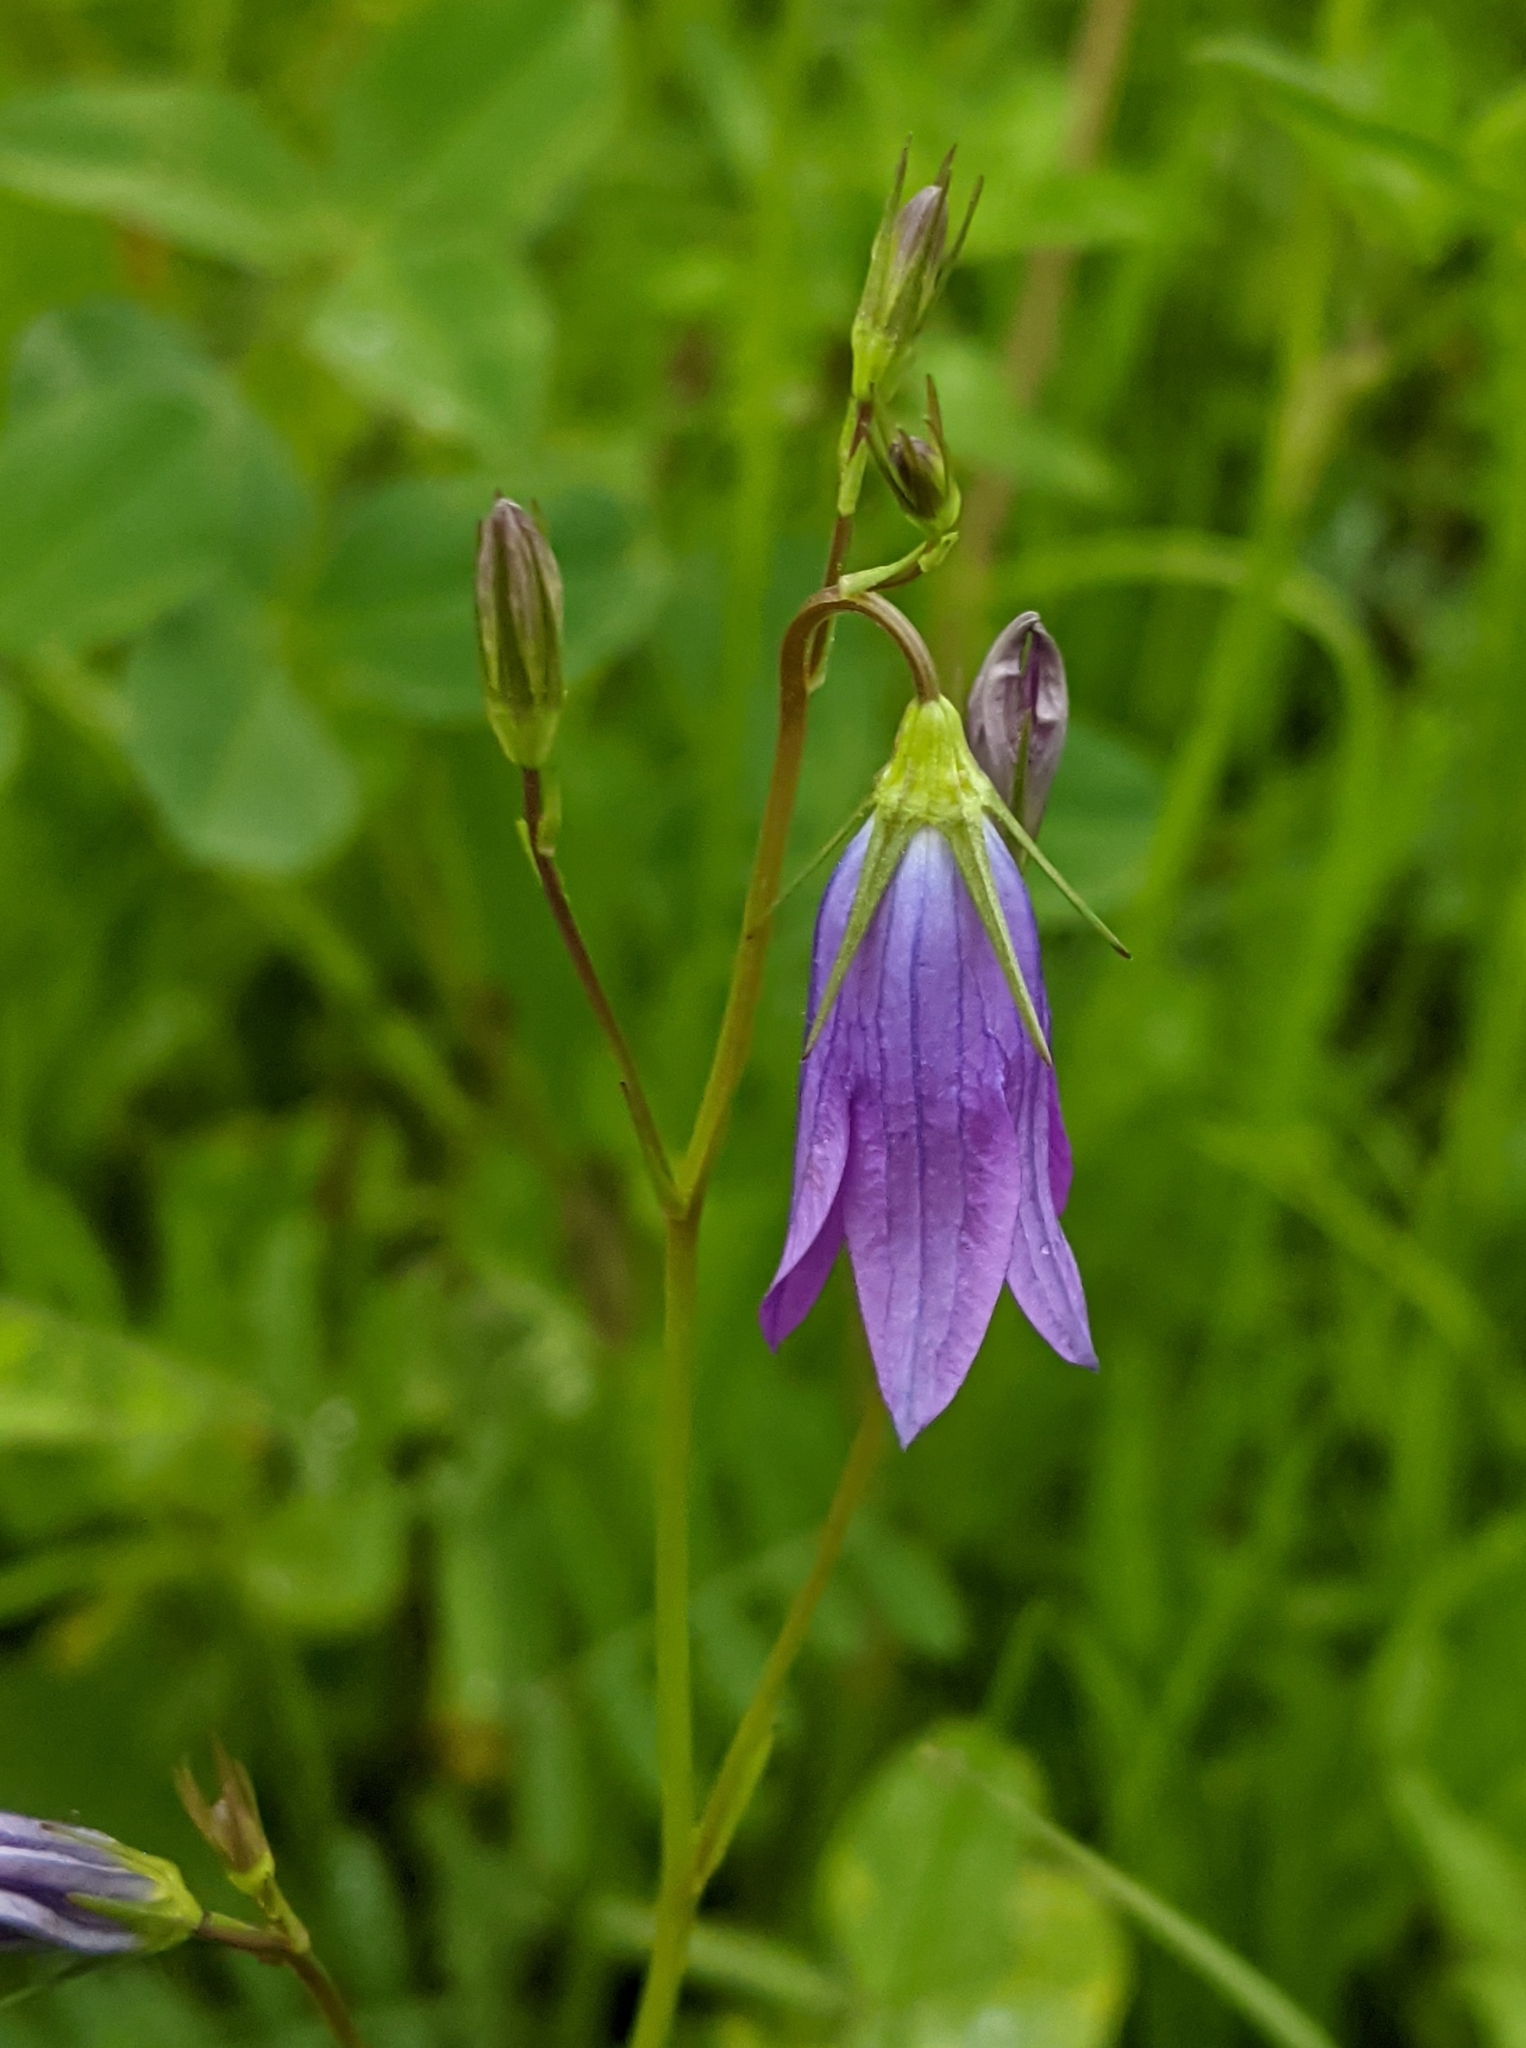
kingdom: Plantae
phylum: Tracheophyta
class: Magnoliopsida
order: Asterales
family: Campanulaceae
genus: Campanula
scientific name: Campanula patula
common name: Spreading bellflower
